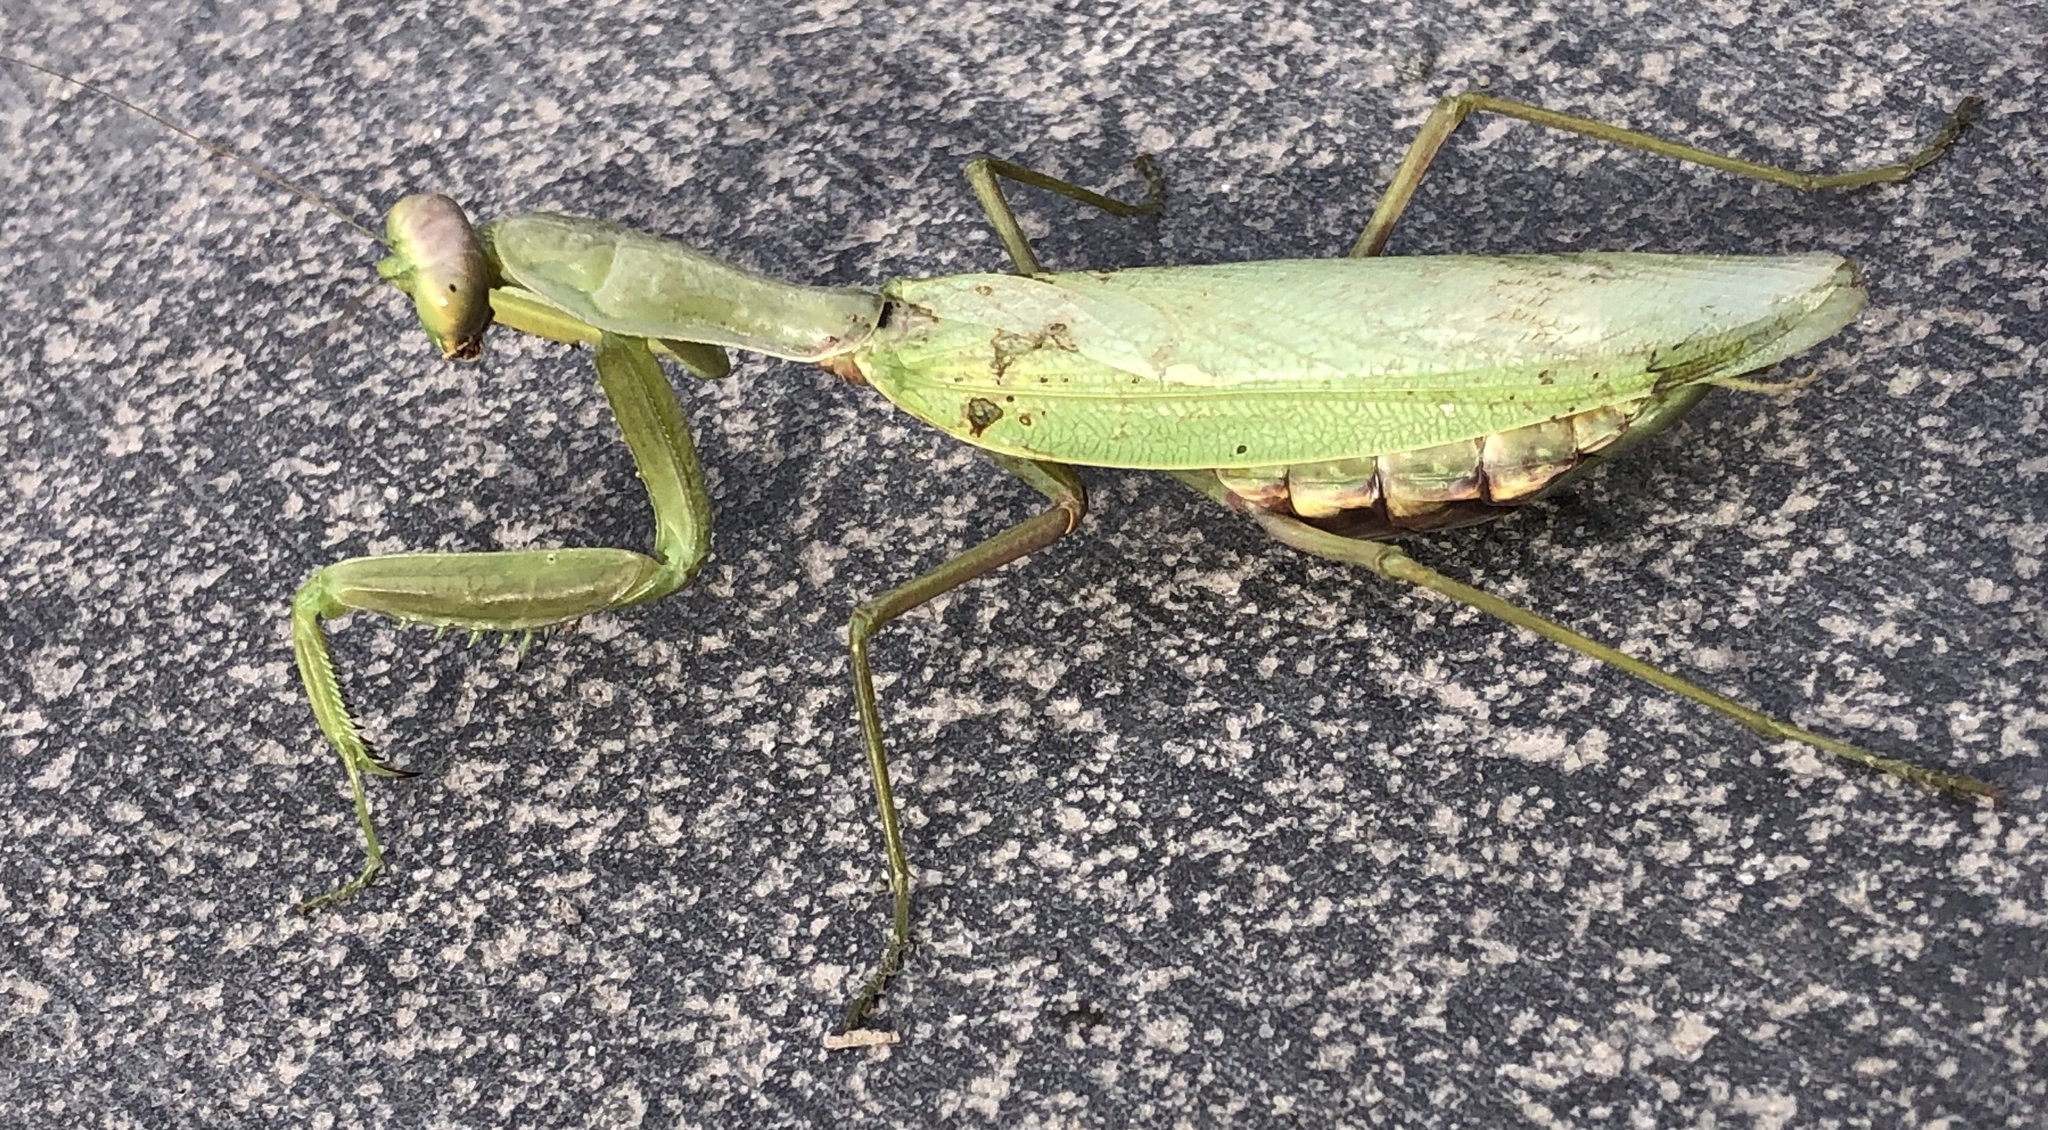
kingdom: Animalia
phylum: Arthropoda
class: Insecta
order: Mantodea
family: Mantidae
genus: Hierodula
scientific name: Hierodula transcaucasica
